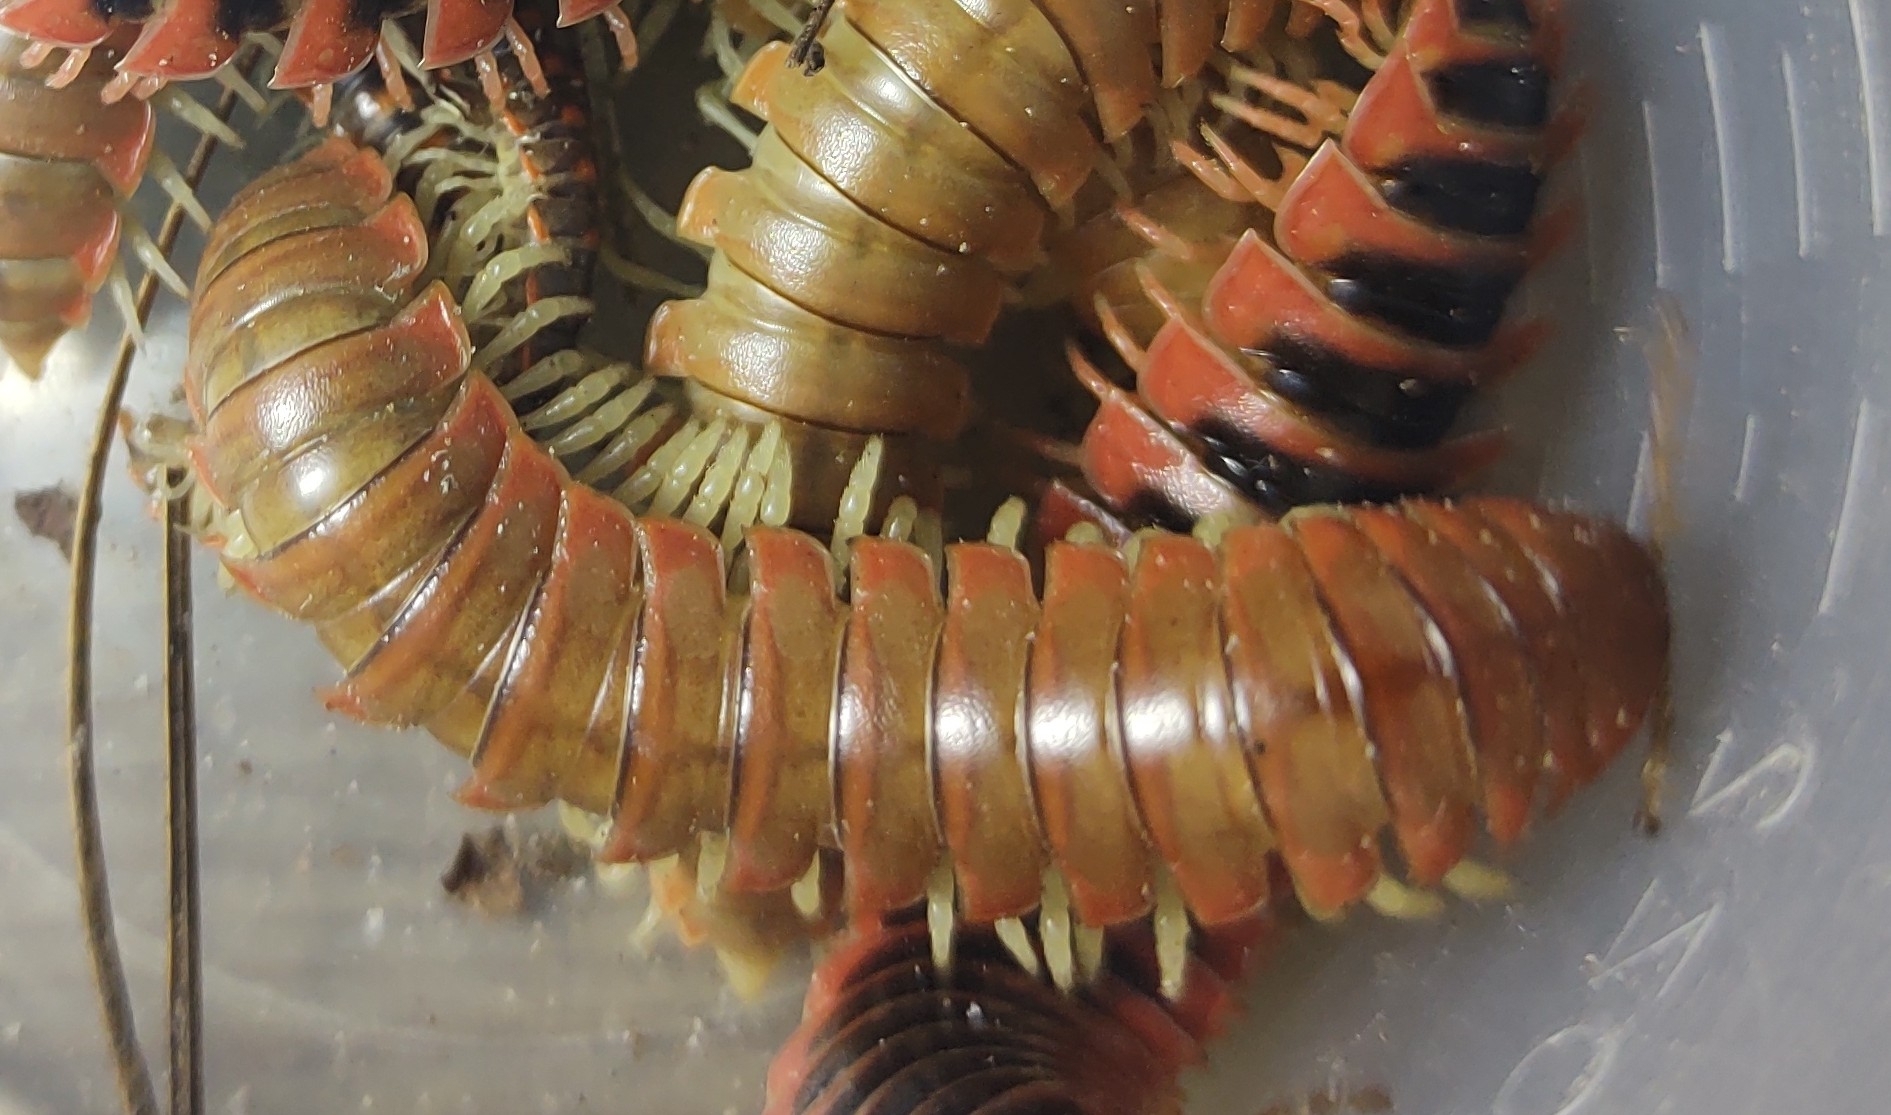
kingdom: Animalia
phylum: Arthropoda
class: Diplopoda
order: Polydesmida
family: Xystodesmidae
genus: Dicellarius
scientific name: Dicellarius bimaculatus
